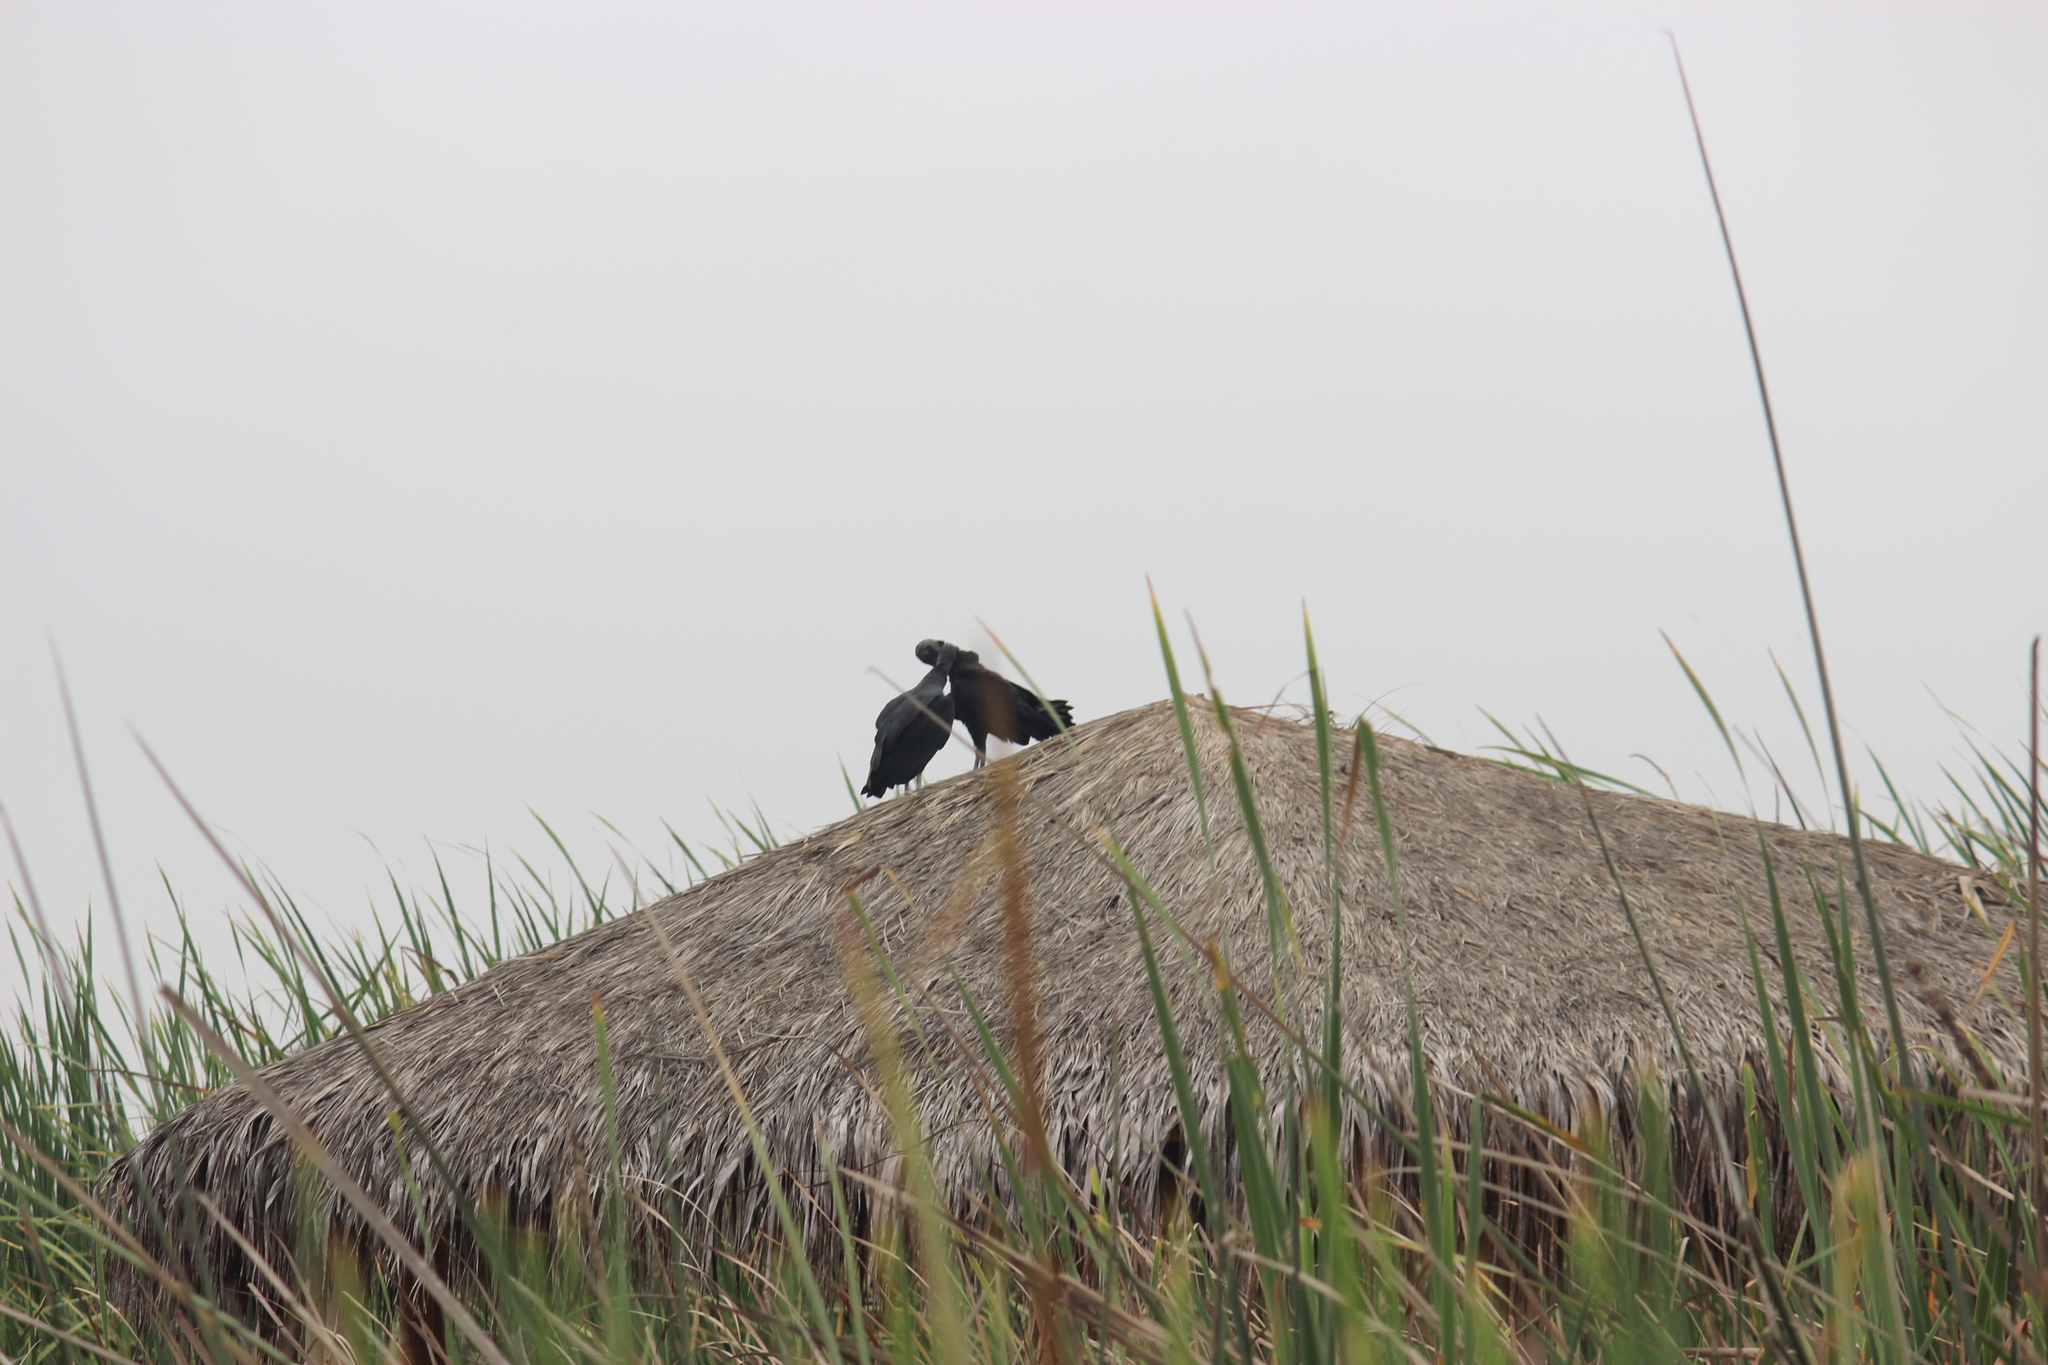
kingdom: Animalia
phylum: Chordata
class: Aves
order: Accipitriformes
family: Cathartidae
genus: Coragyps
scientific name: Coragyps atratus
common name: Black vulture
